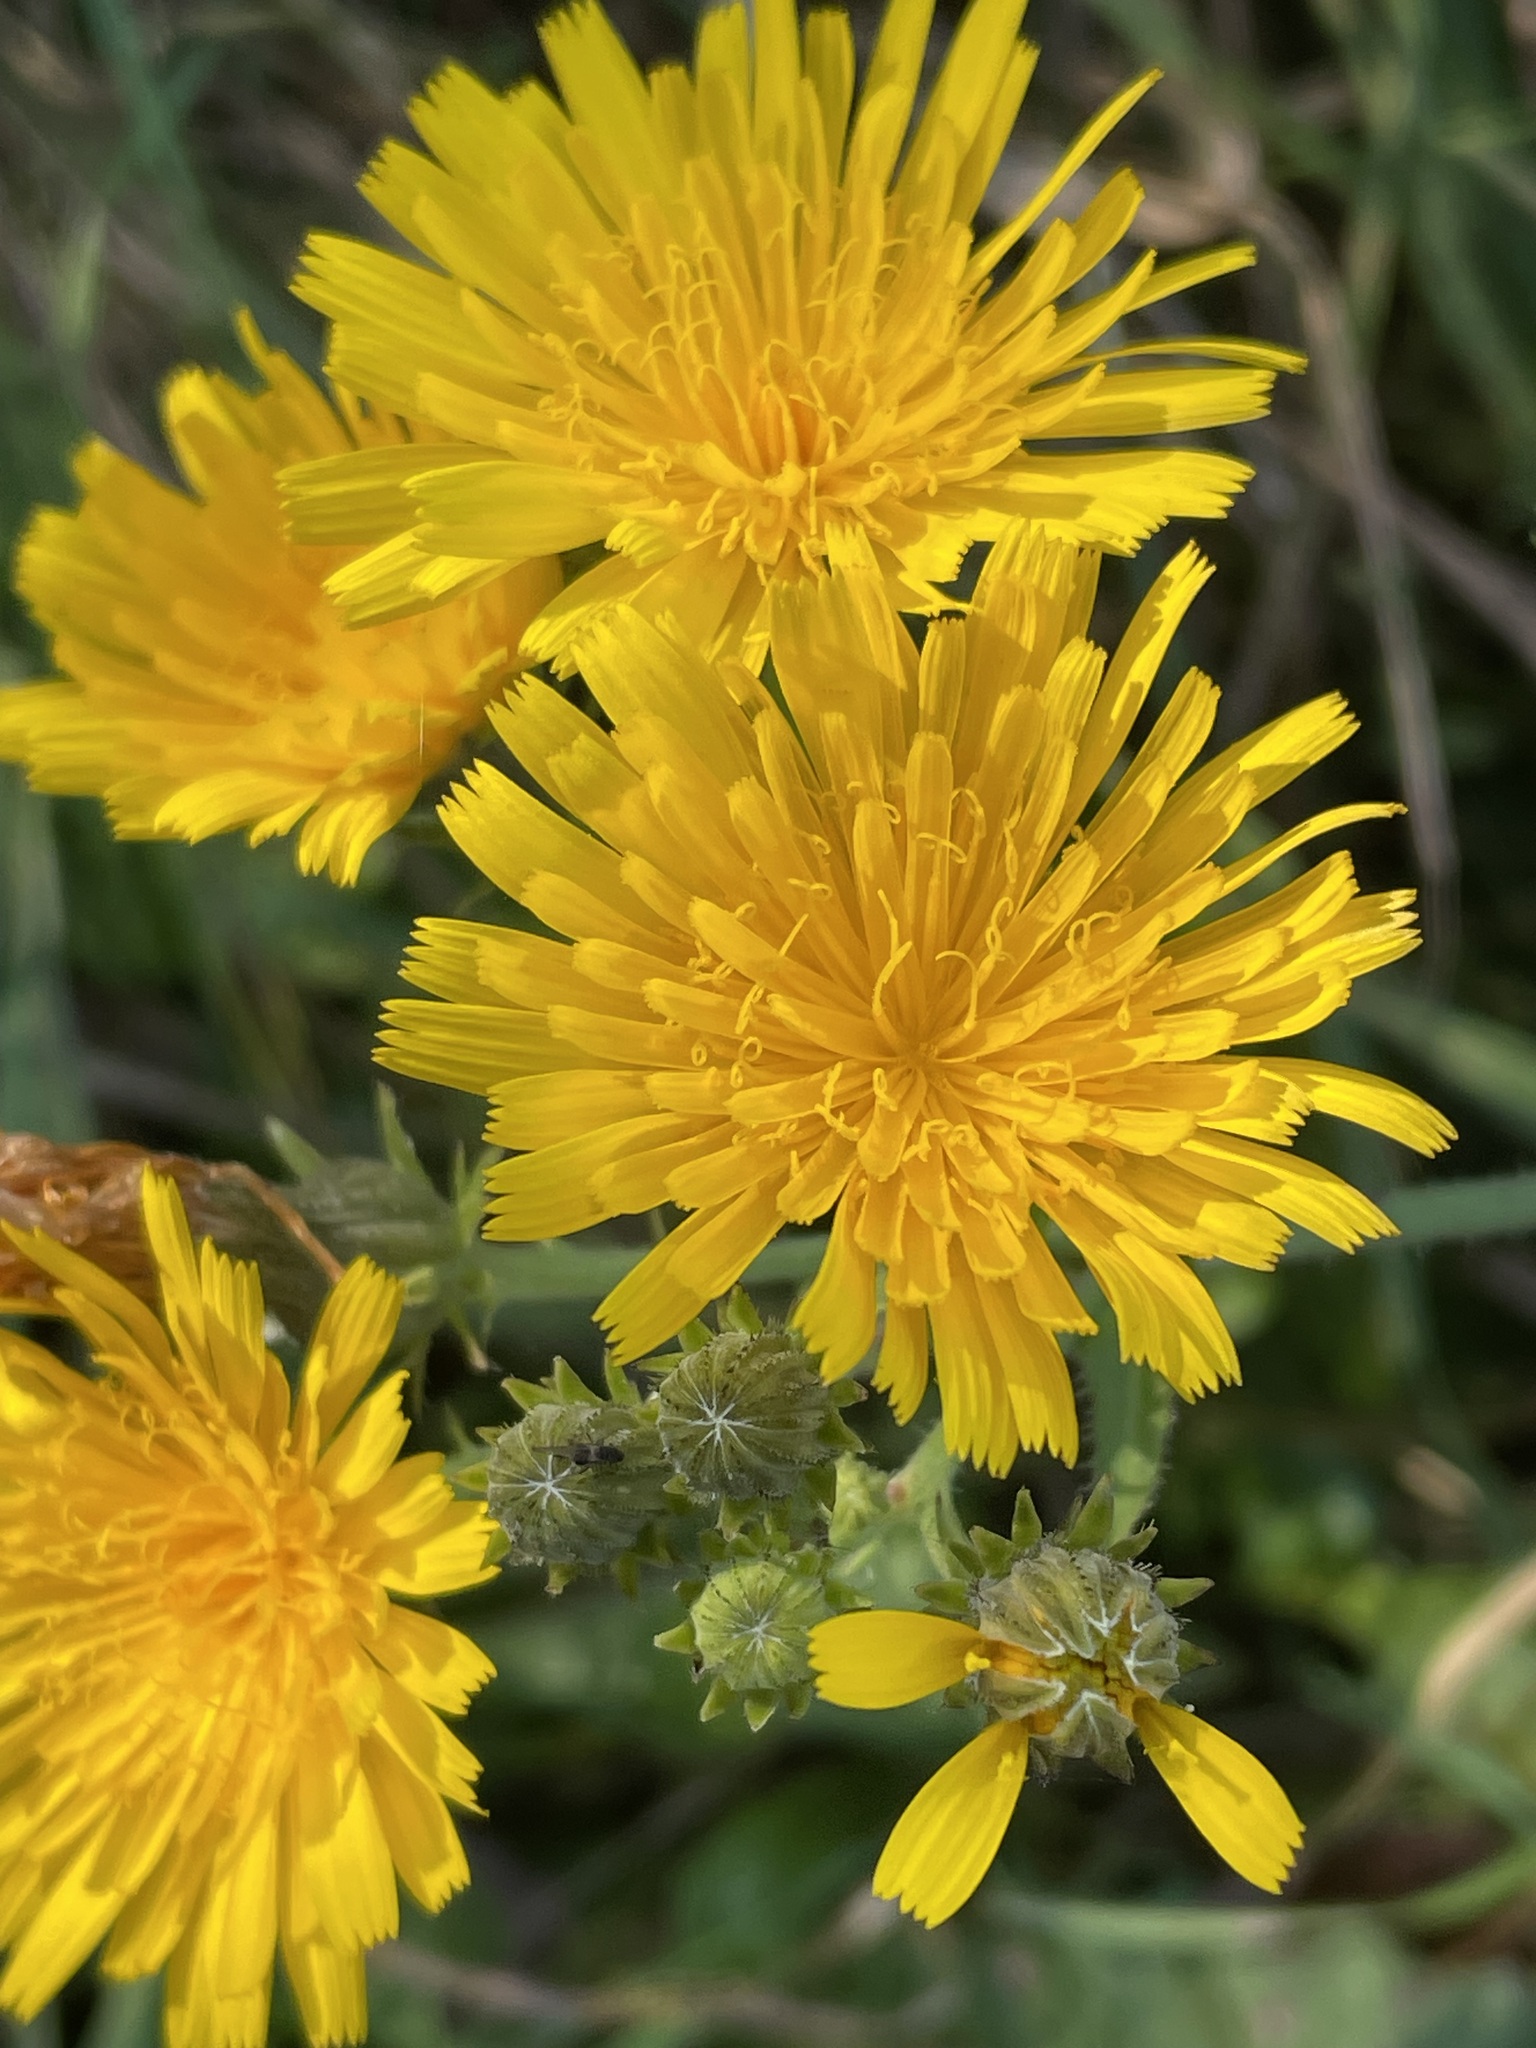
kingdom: Plantae
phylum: Tracheophyta
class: Magnoliopsida
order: Asterales
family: Asteraceae
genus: Picris
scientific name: Picris hieracioides
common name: Hawkweed oxtongue
